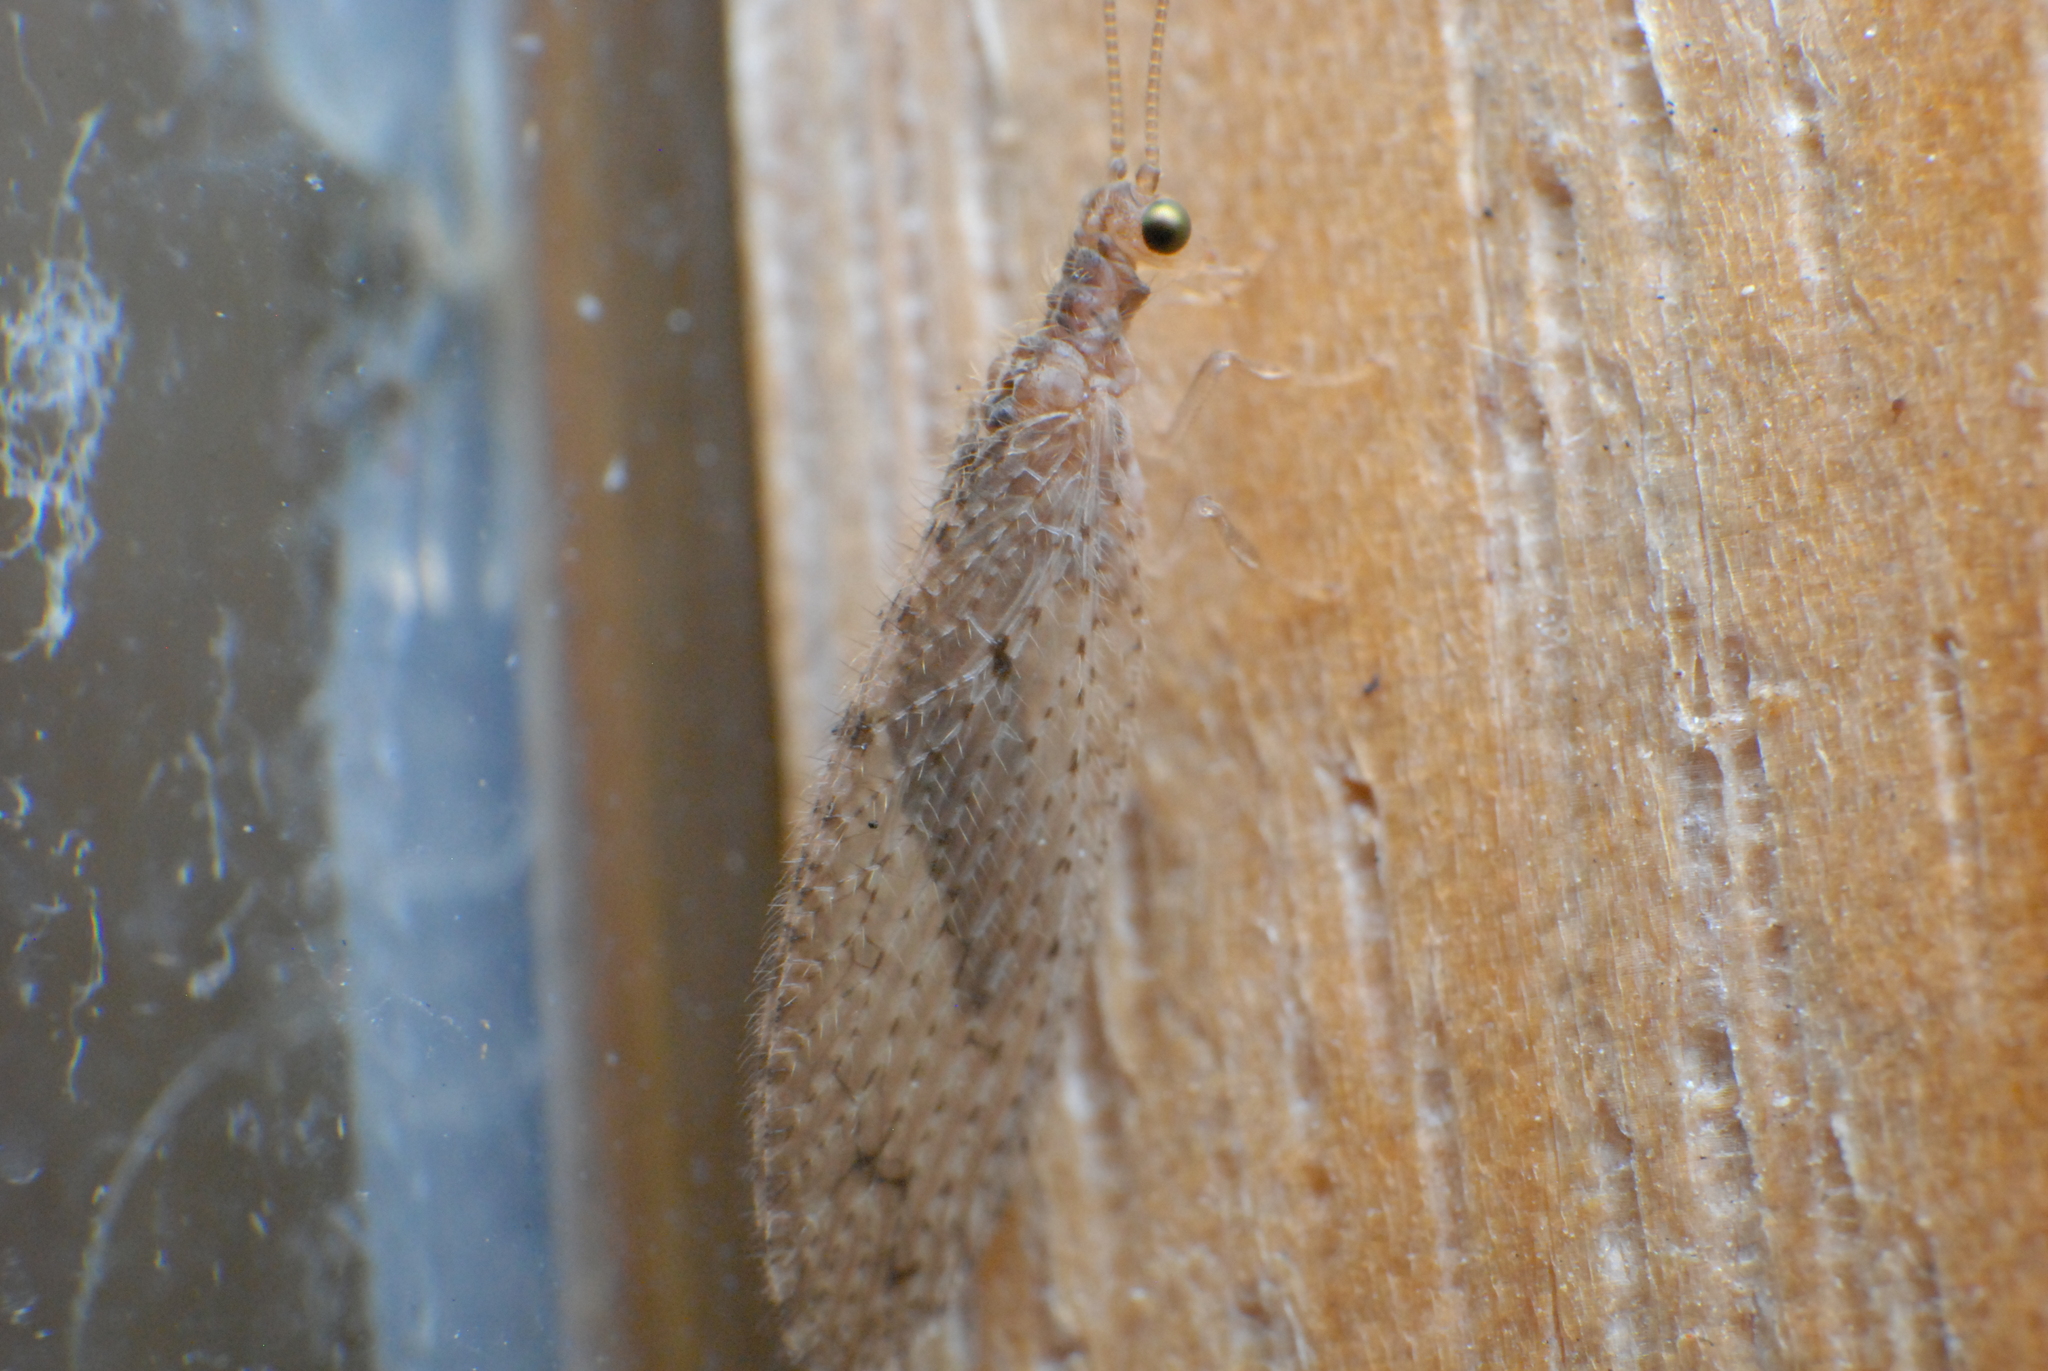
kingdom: Animalia
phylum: Arthropoda
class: Insecta
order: Neuroptera
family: Hemerobiidae
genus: Micromus
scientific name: Micromus tasmaniae
